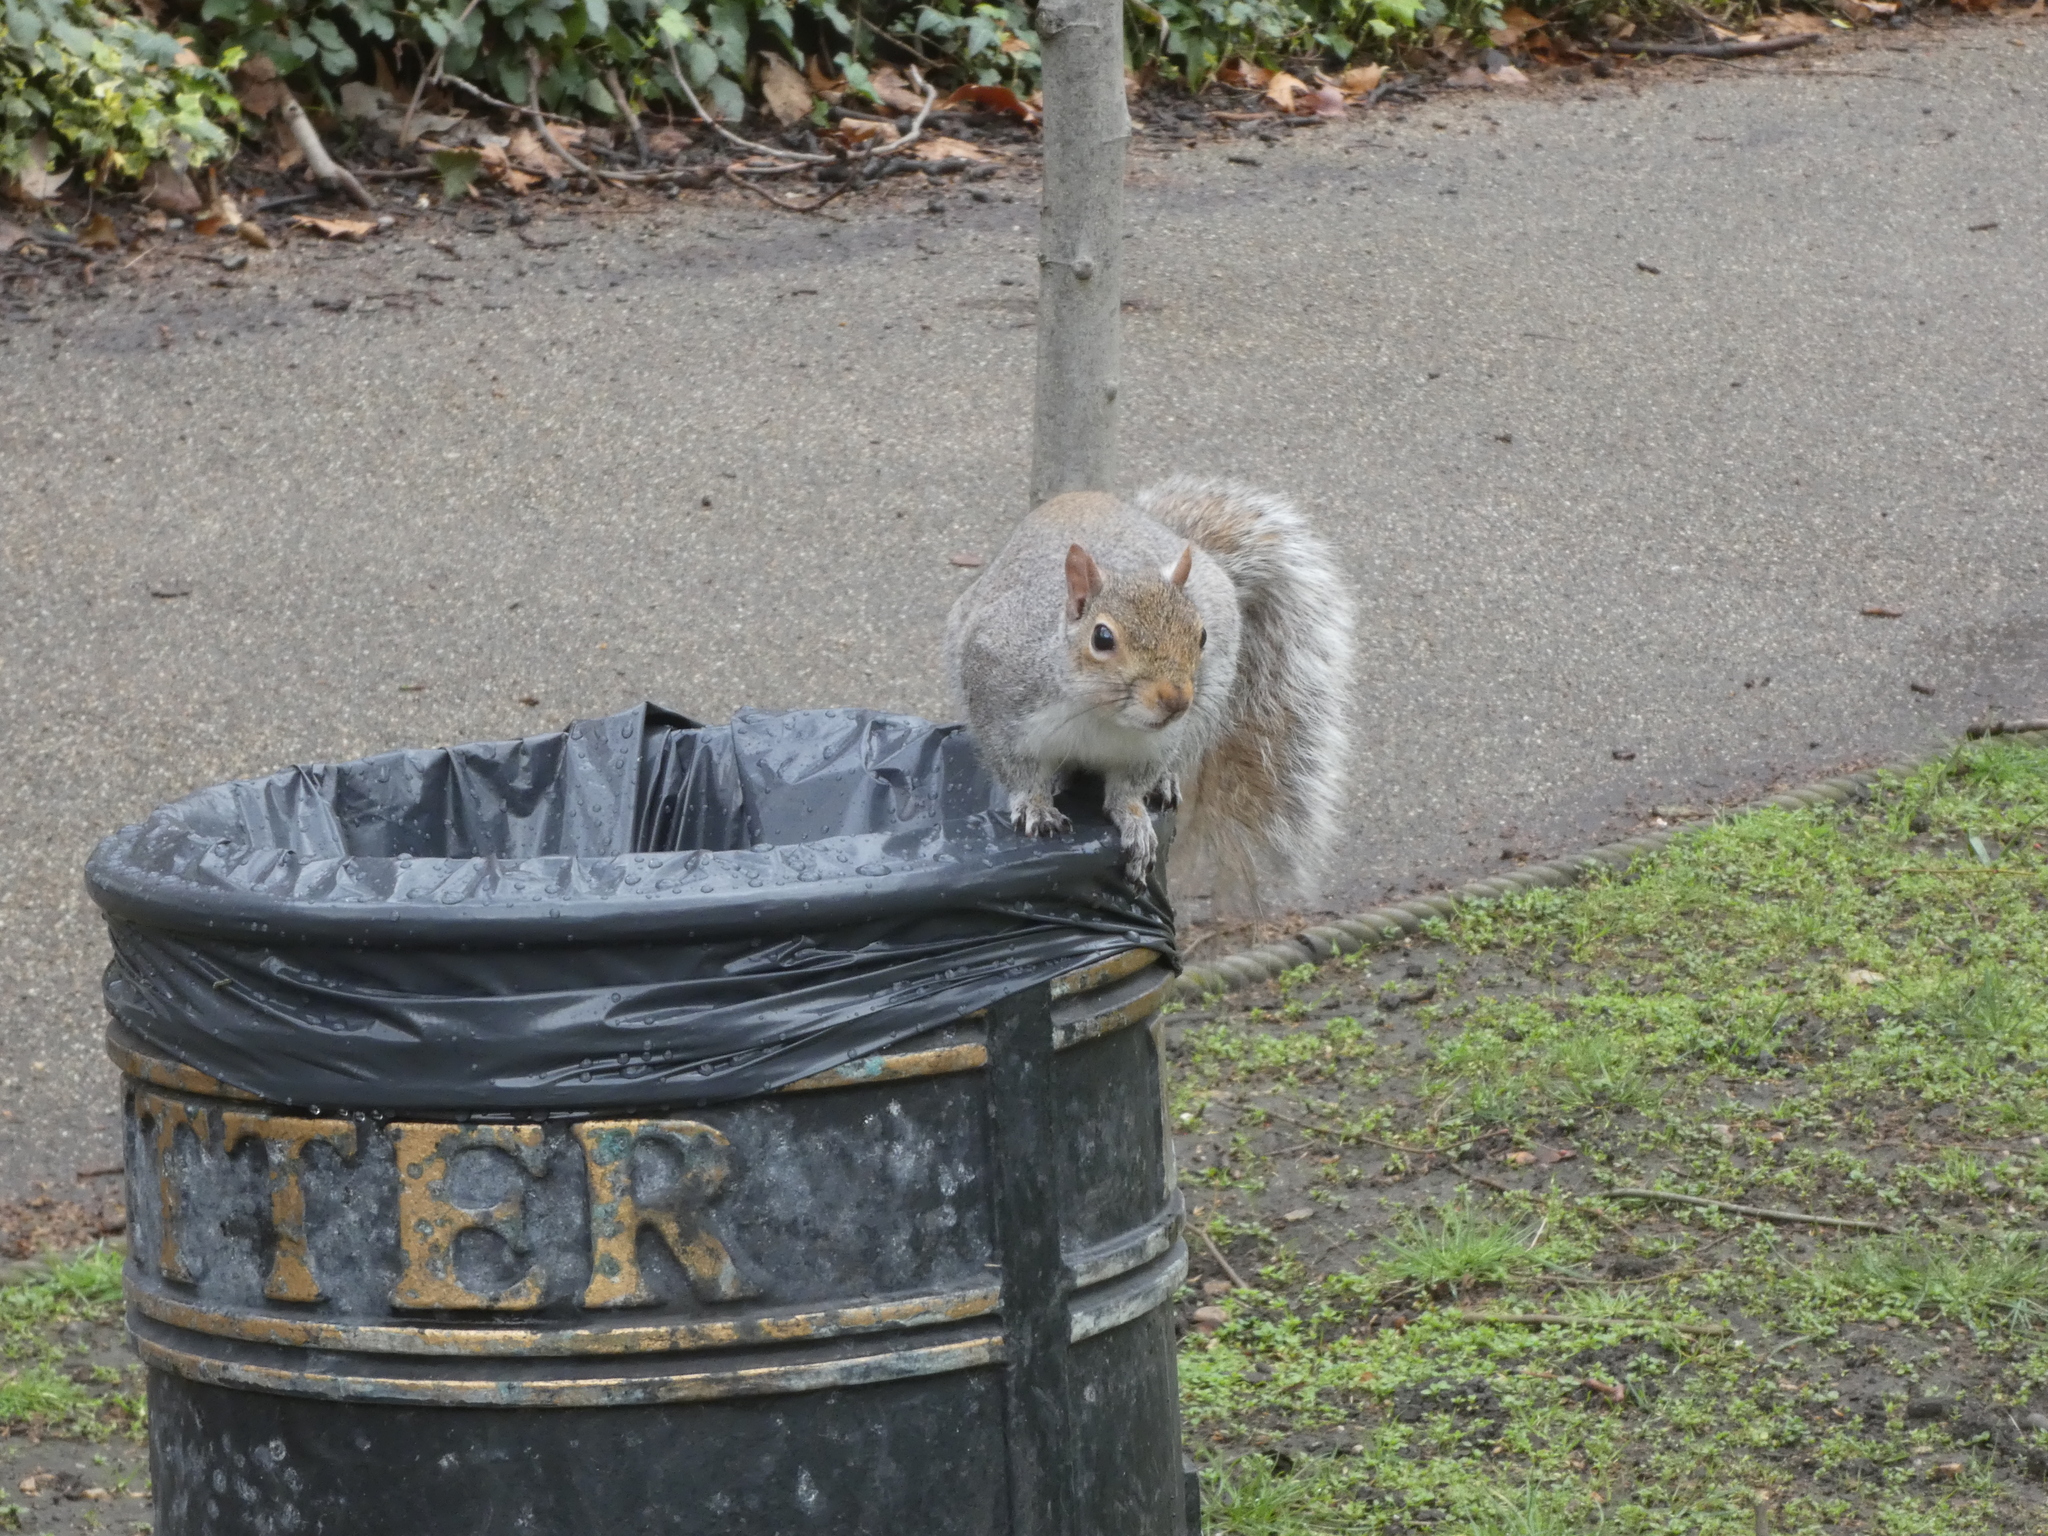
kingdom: Animalia
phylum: Chordata
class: Mammalia
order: Rodentia
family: Sciuridae
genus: Sciurus
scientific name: Sciurus carolinensis
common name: Eastern gray squirrel
